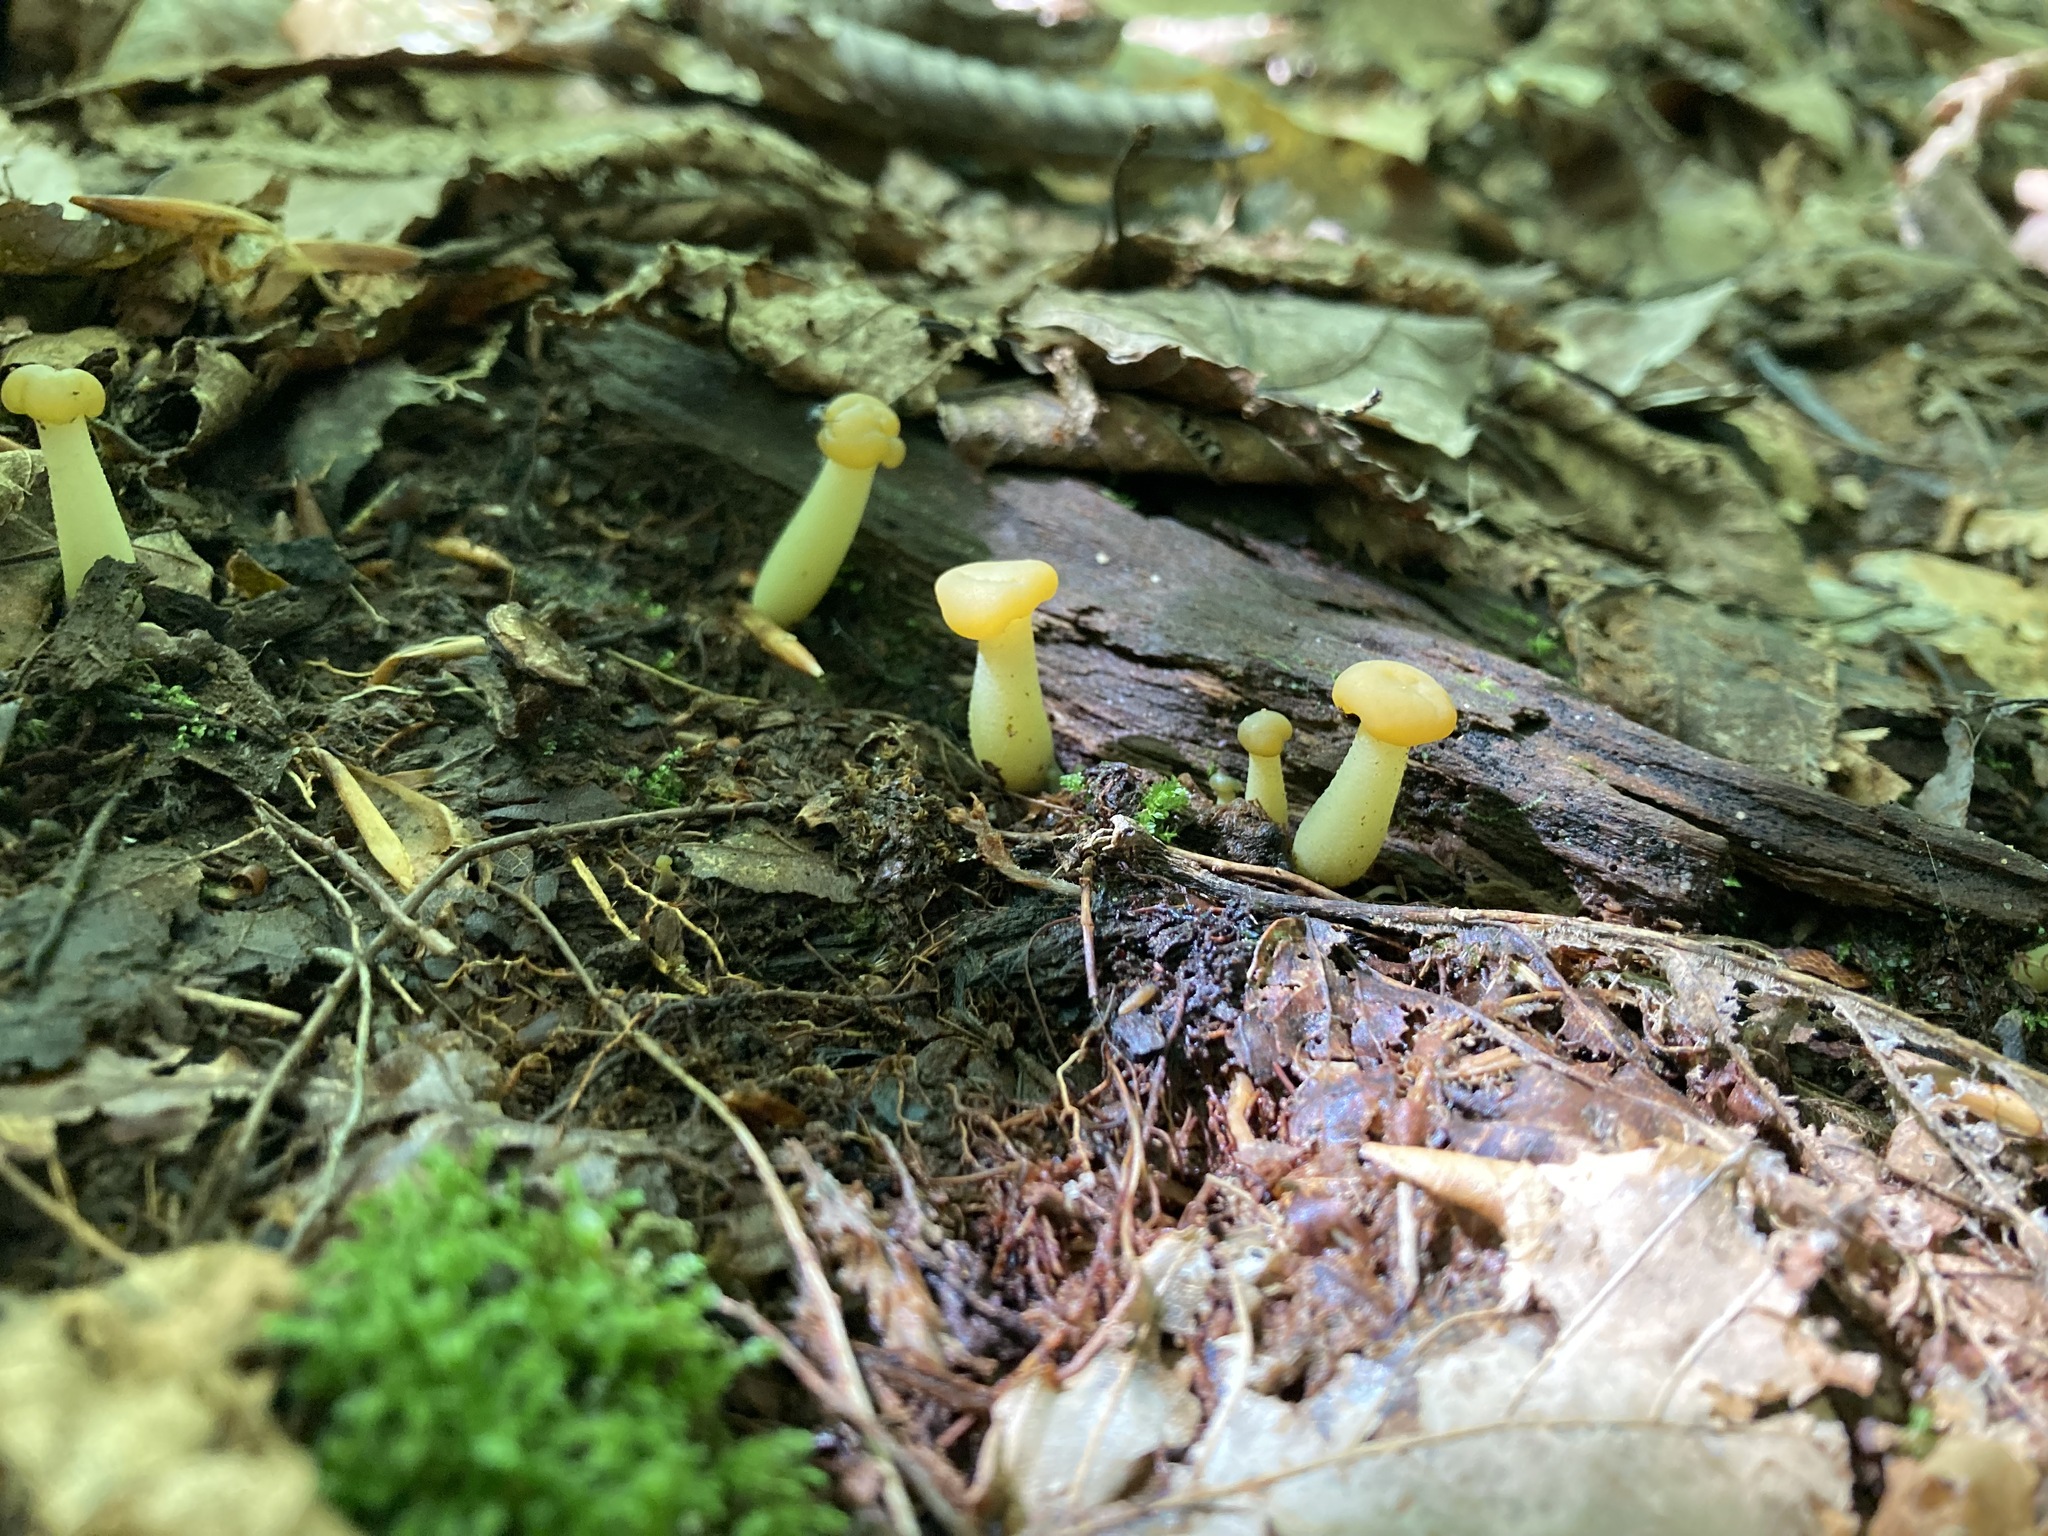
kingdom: Fungi
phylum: Ascomycota
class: Leotiomycetes
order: Leotiales
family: Leotiaceae
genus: Leotia
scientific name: Leotia lubrica
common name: Jellybaby
